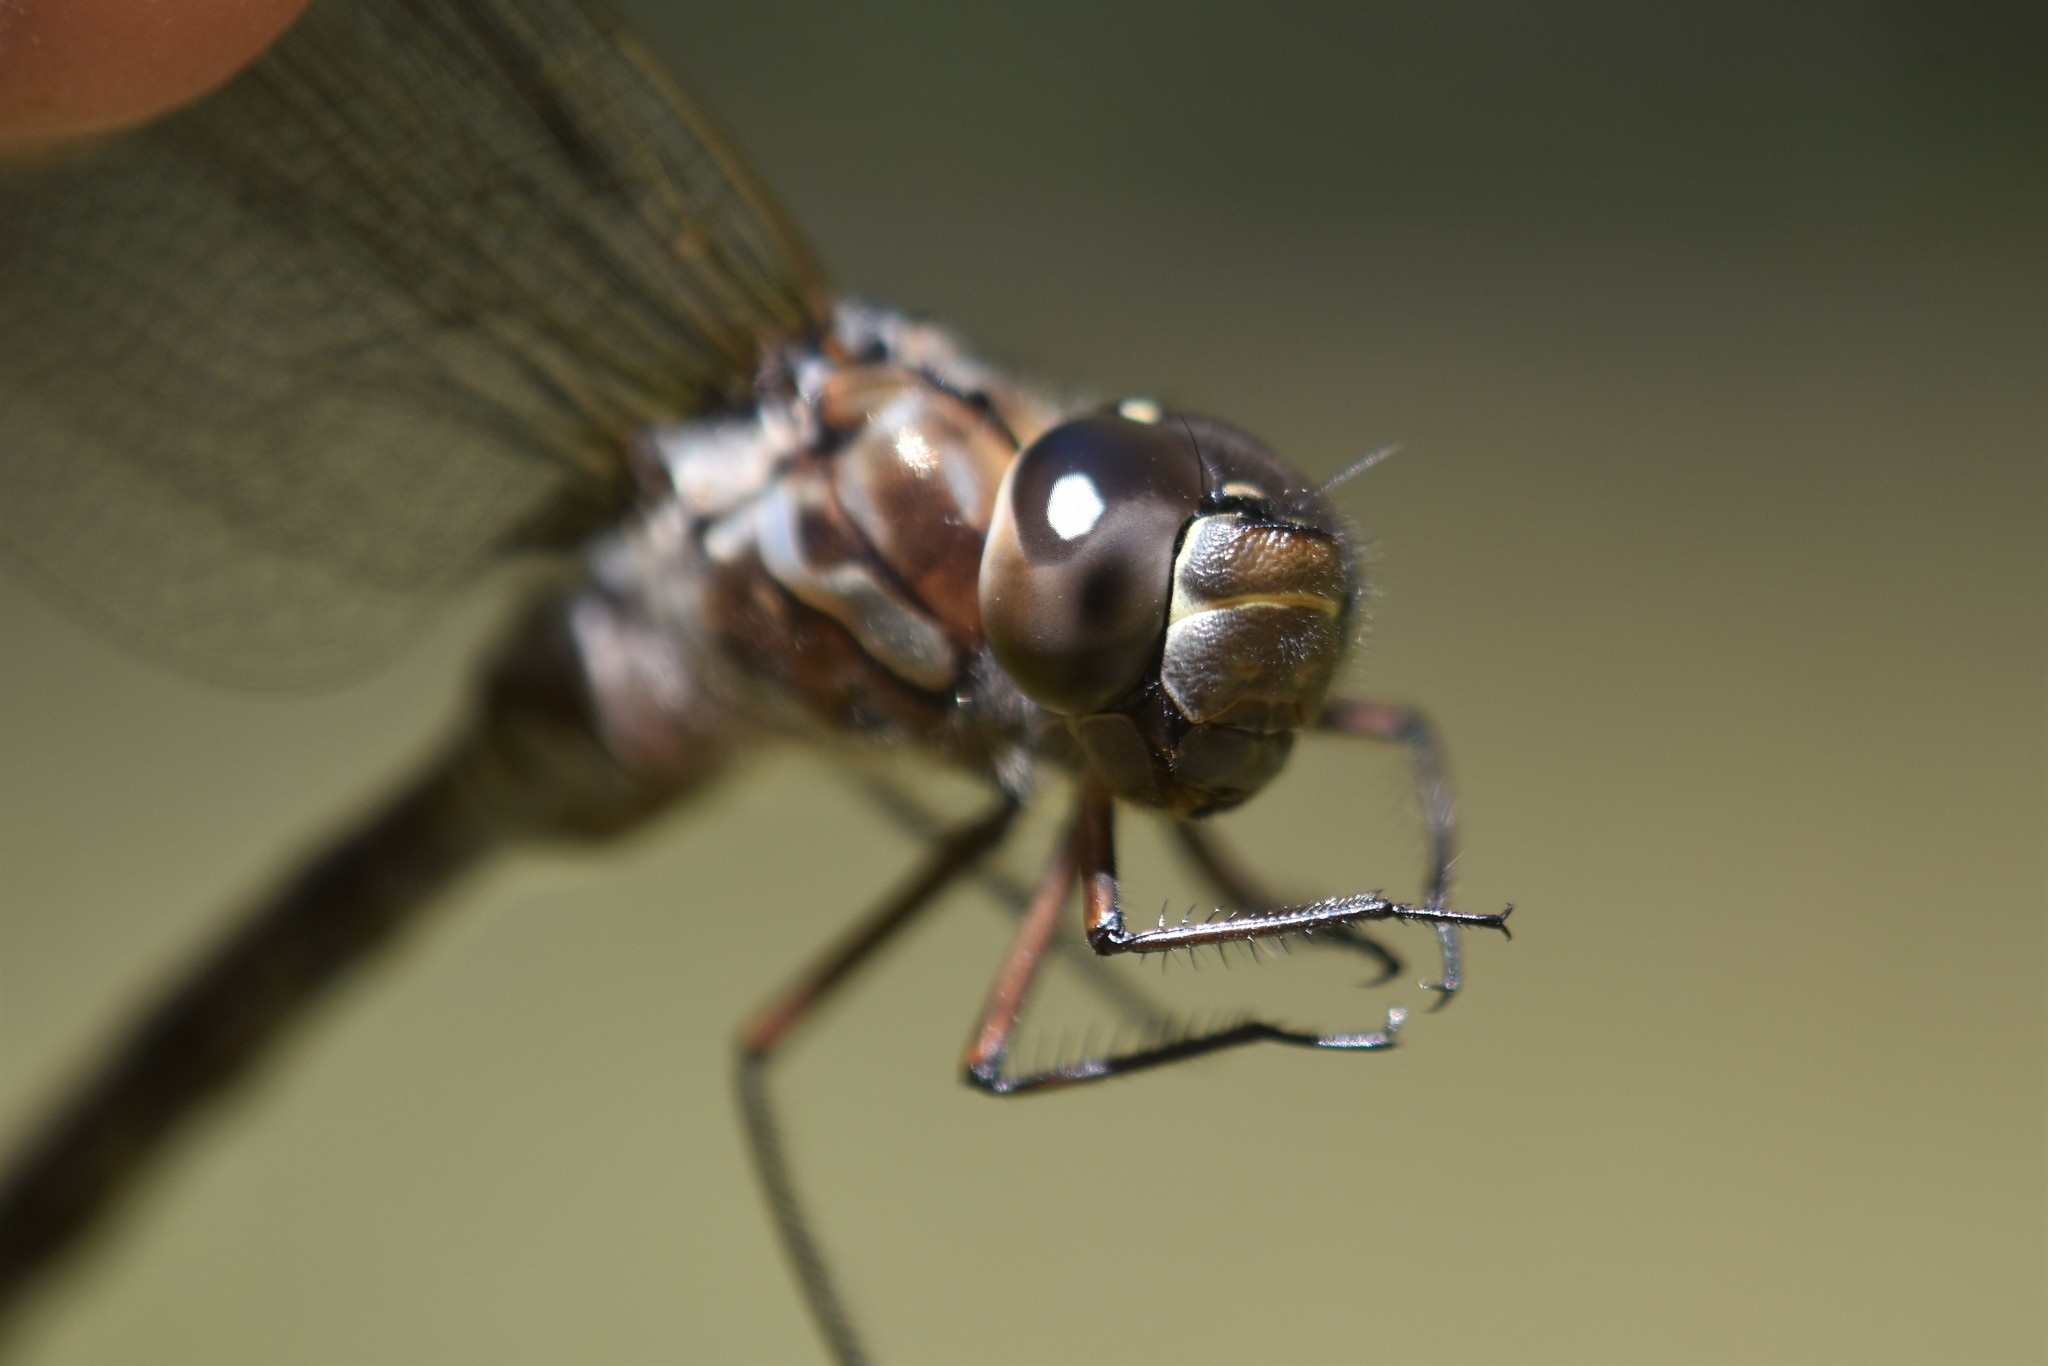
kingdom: Animalia
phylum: Arthropoda
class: Insecta
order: Odonata
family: Aeshnidae
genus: Aeshna
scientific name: Aeshna canadensis
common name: Canada darner
